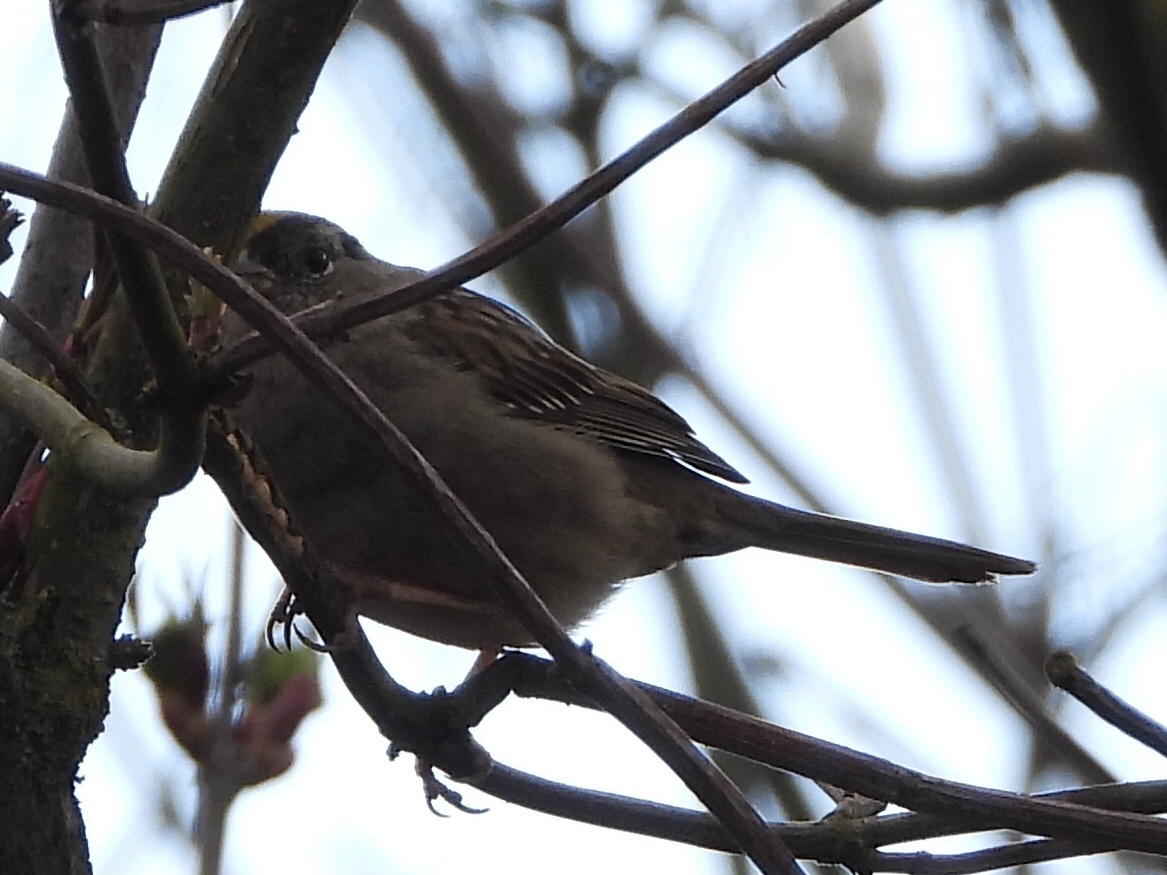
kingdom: Animalia
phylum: Chordata
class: Aves
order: Passeriformes
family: Passerellidae
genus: Zonotrichia
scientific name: Zonotrichia atricapilla
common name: Golden-crowned sparrow
